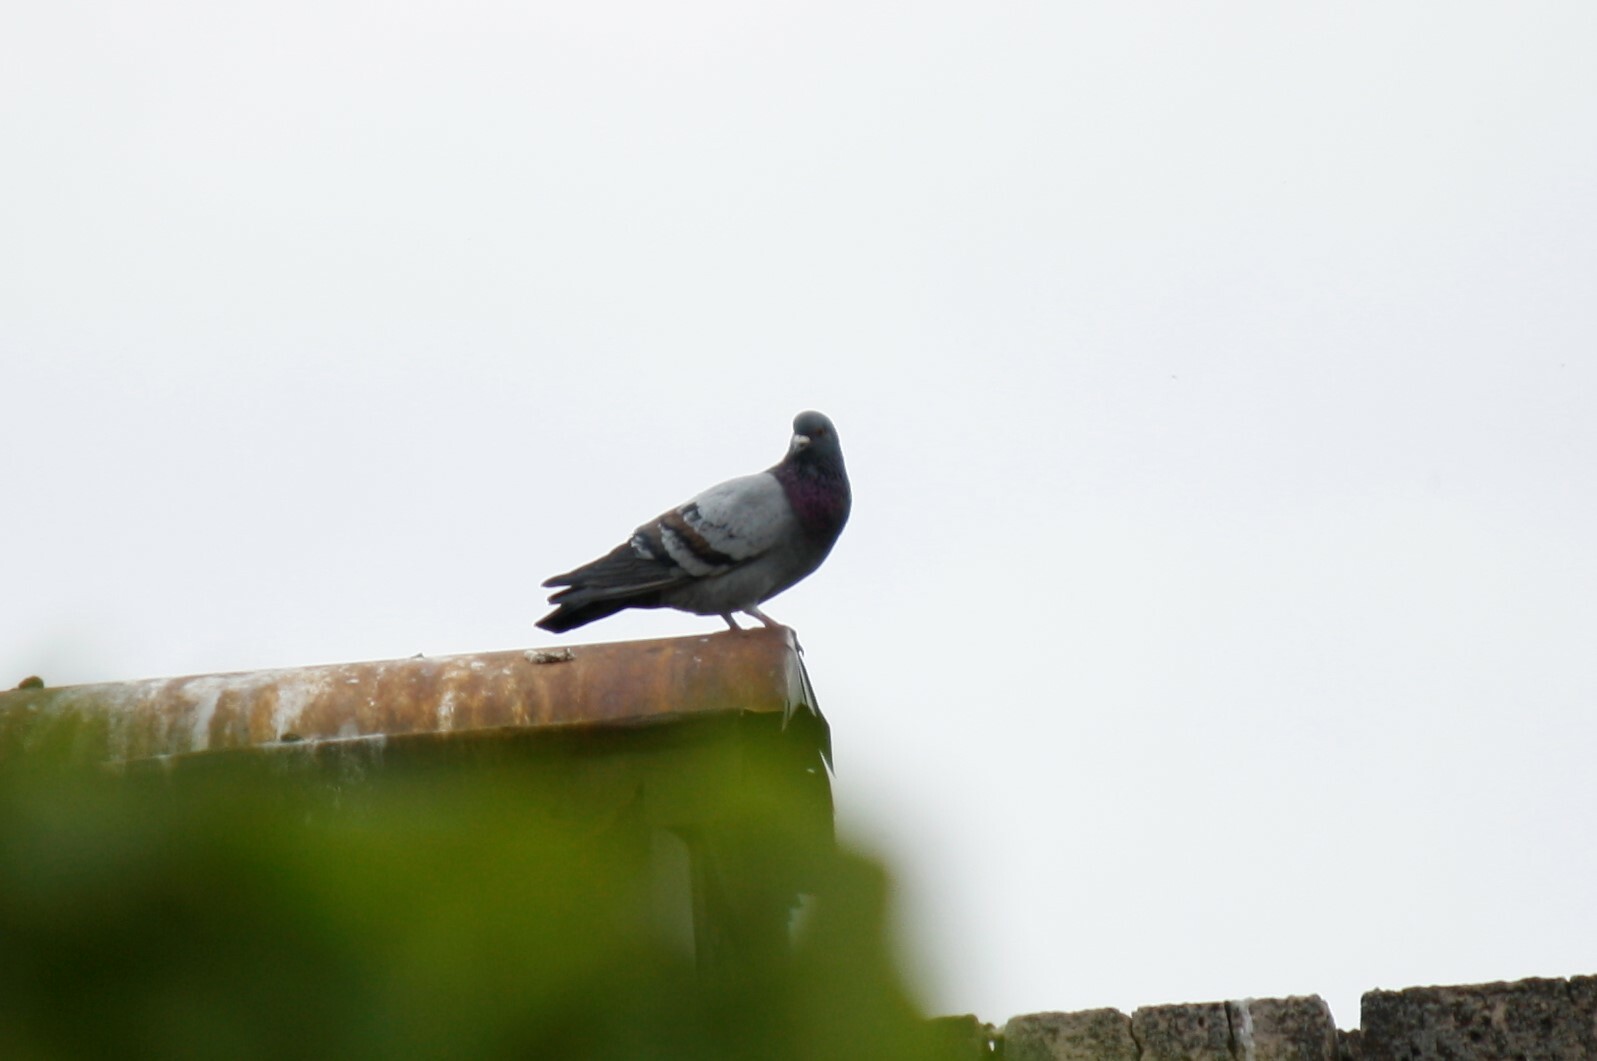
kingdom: Animalia
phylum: Chordata
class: Aves
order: Columbiformes
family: Columbidae
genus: Columba
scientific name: Columba livia
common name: Rock pigeon
